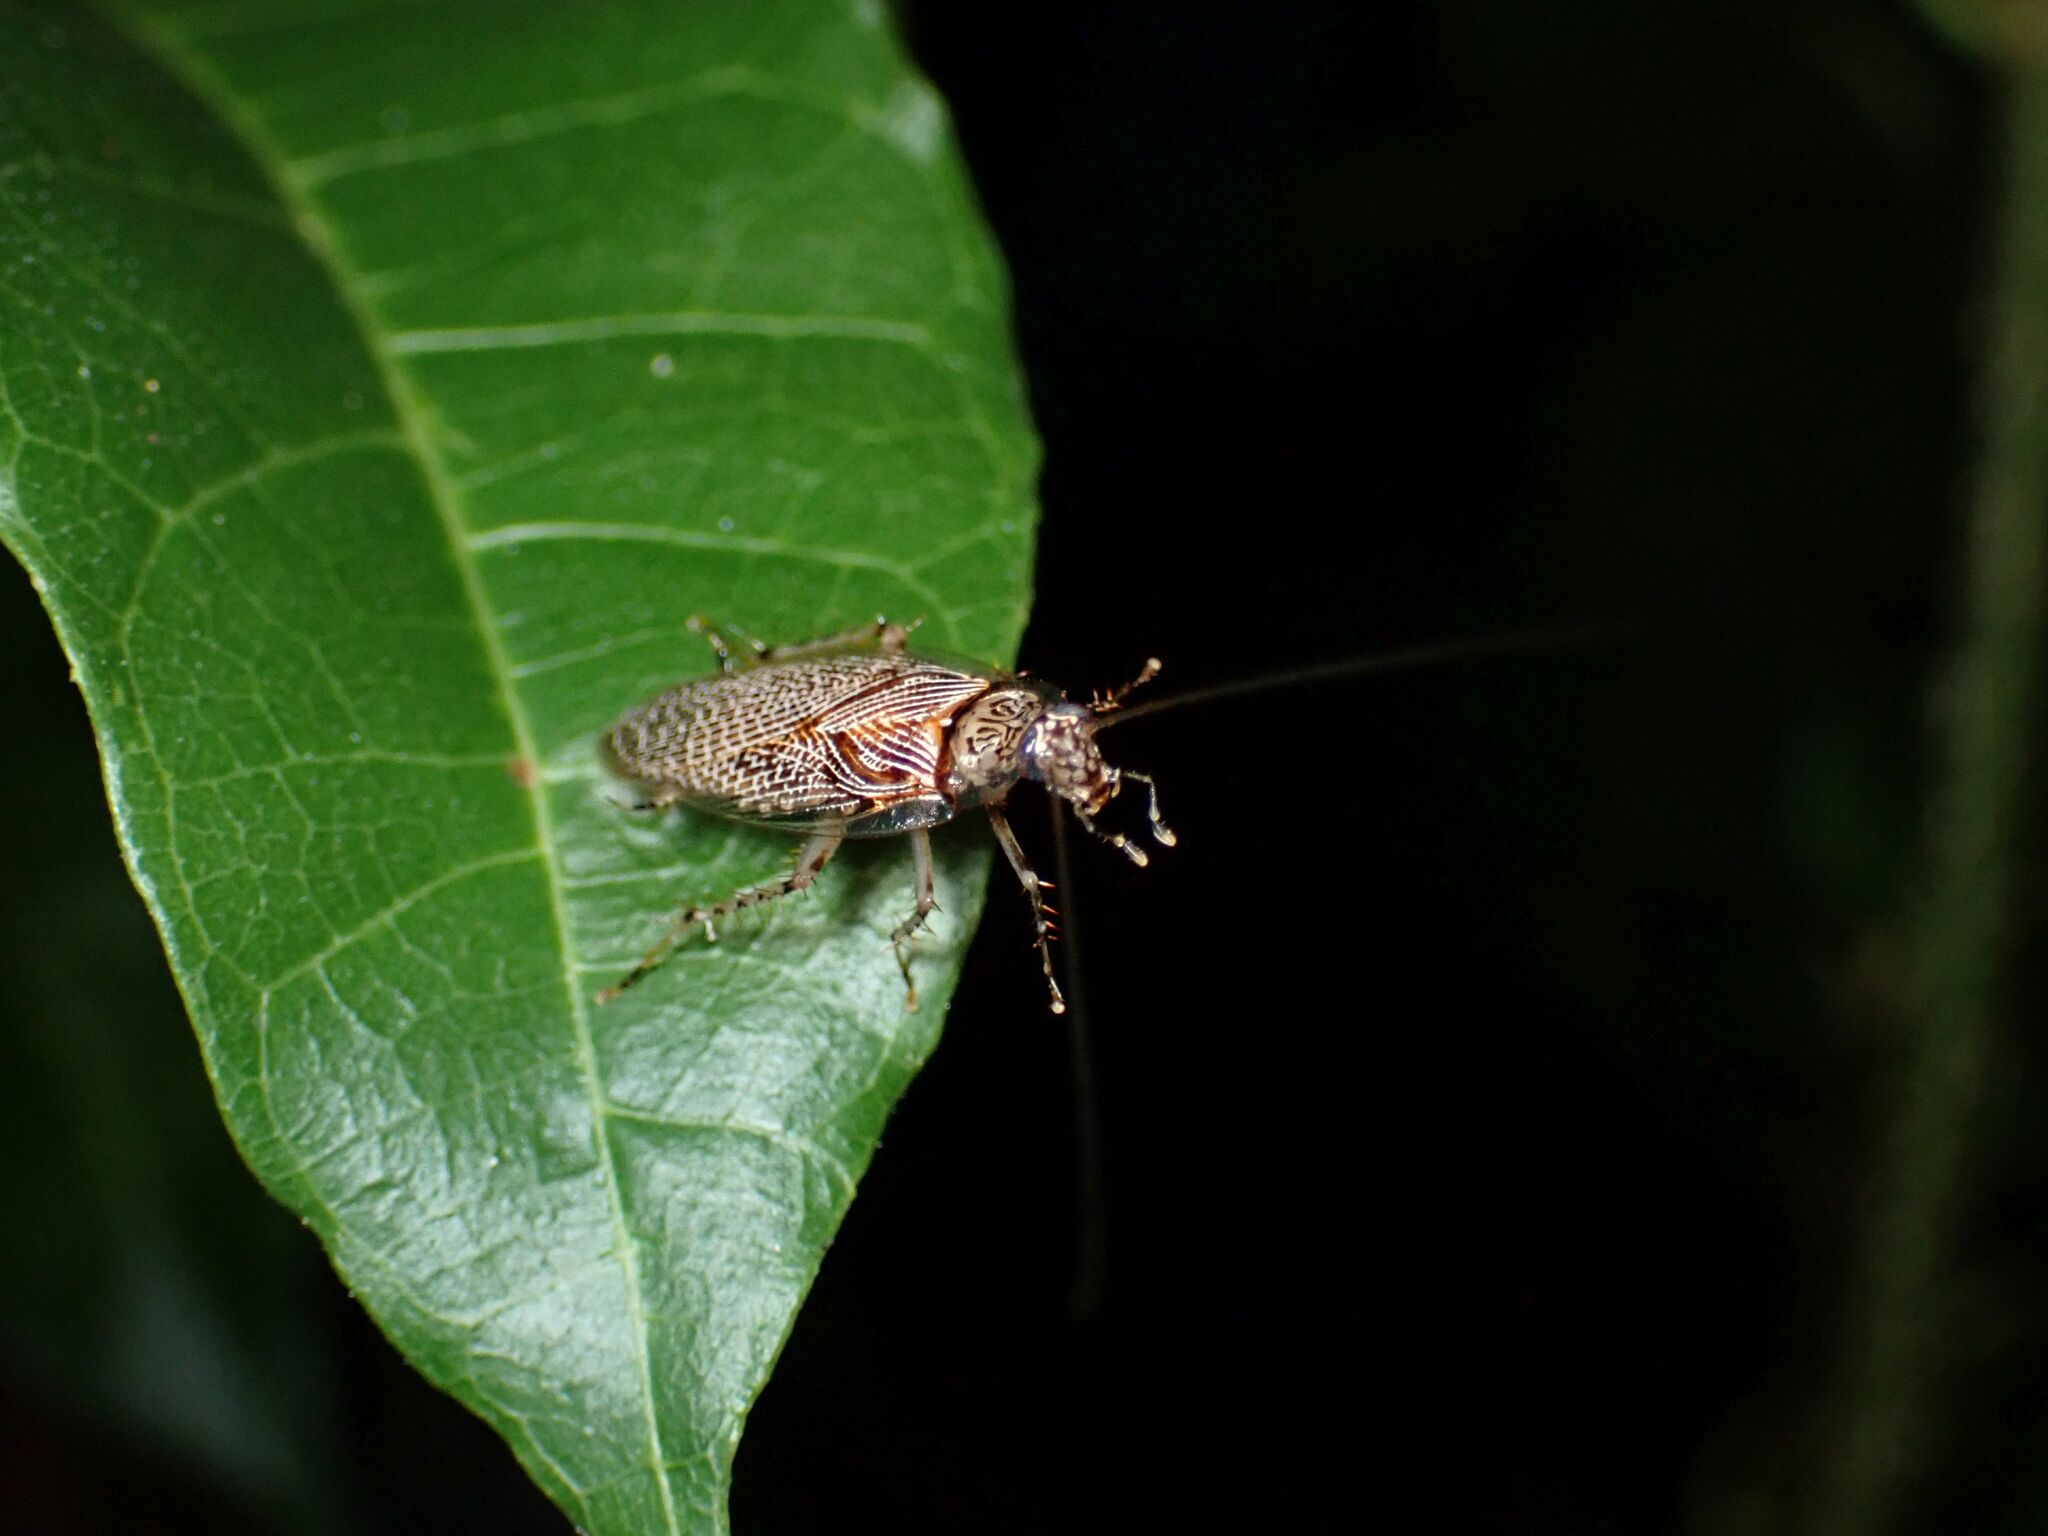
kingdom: Animalia
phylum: Arthropoda
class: Insecta
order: Blattodea
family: Ectobiidae
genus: Balta
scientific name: Balta notulata
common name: Cockroach
